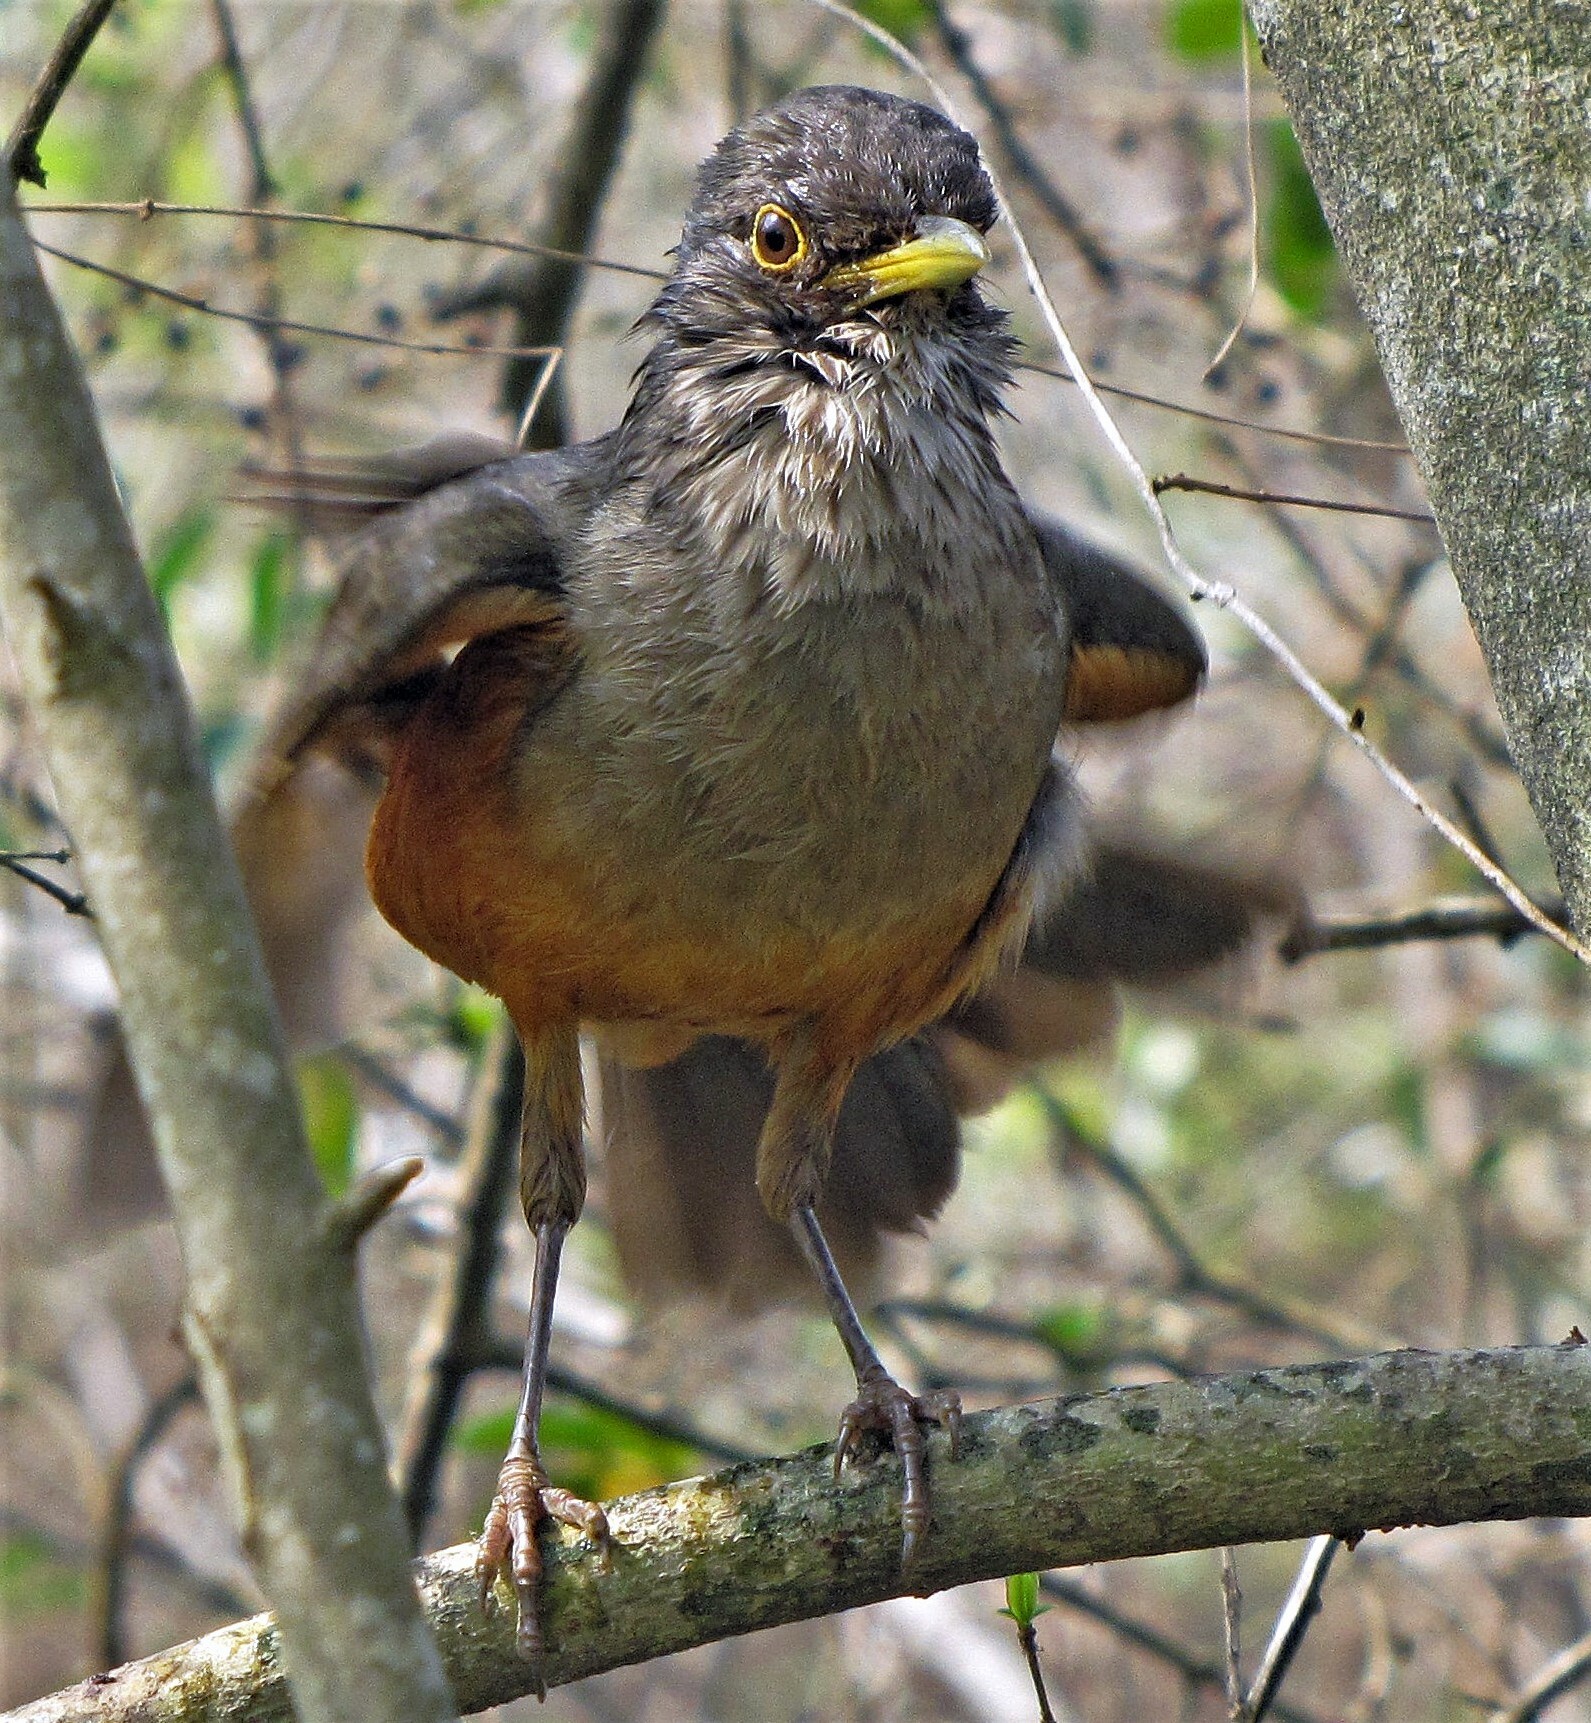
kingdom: Animalia
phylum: Chordata
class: Aves
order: Passeriformes
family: Turdidae
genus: Turdus
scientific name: Turdus rufiventris
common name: Rufous-bellied thrush
